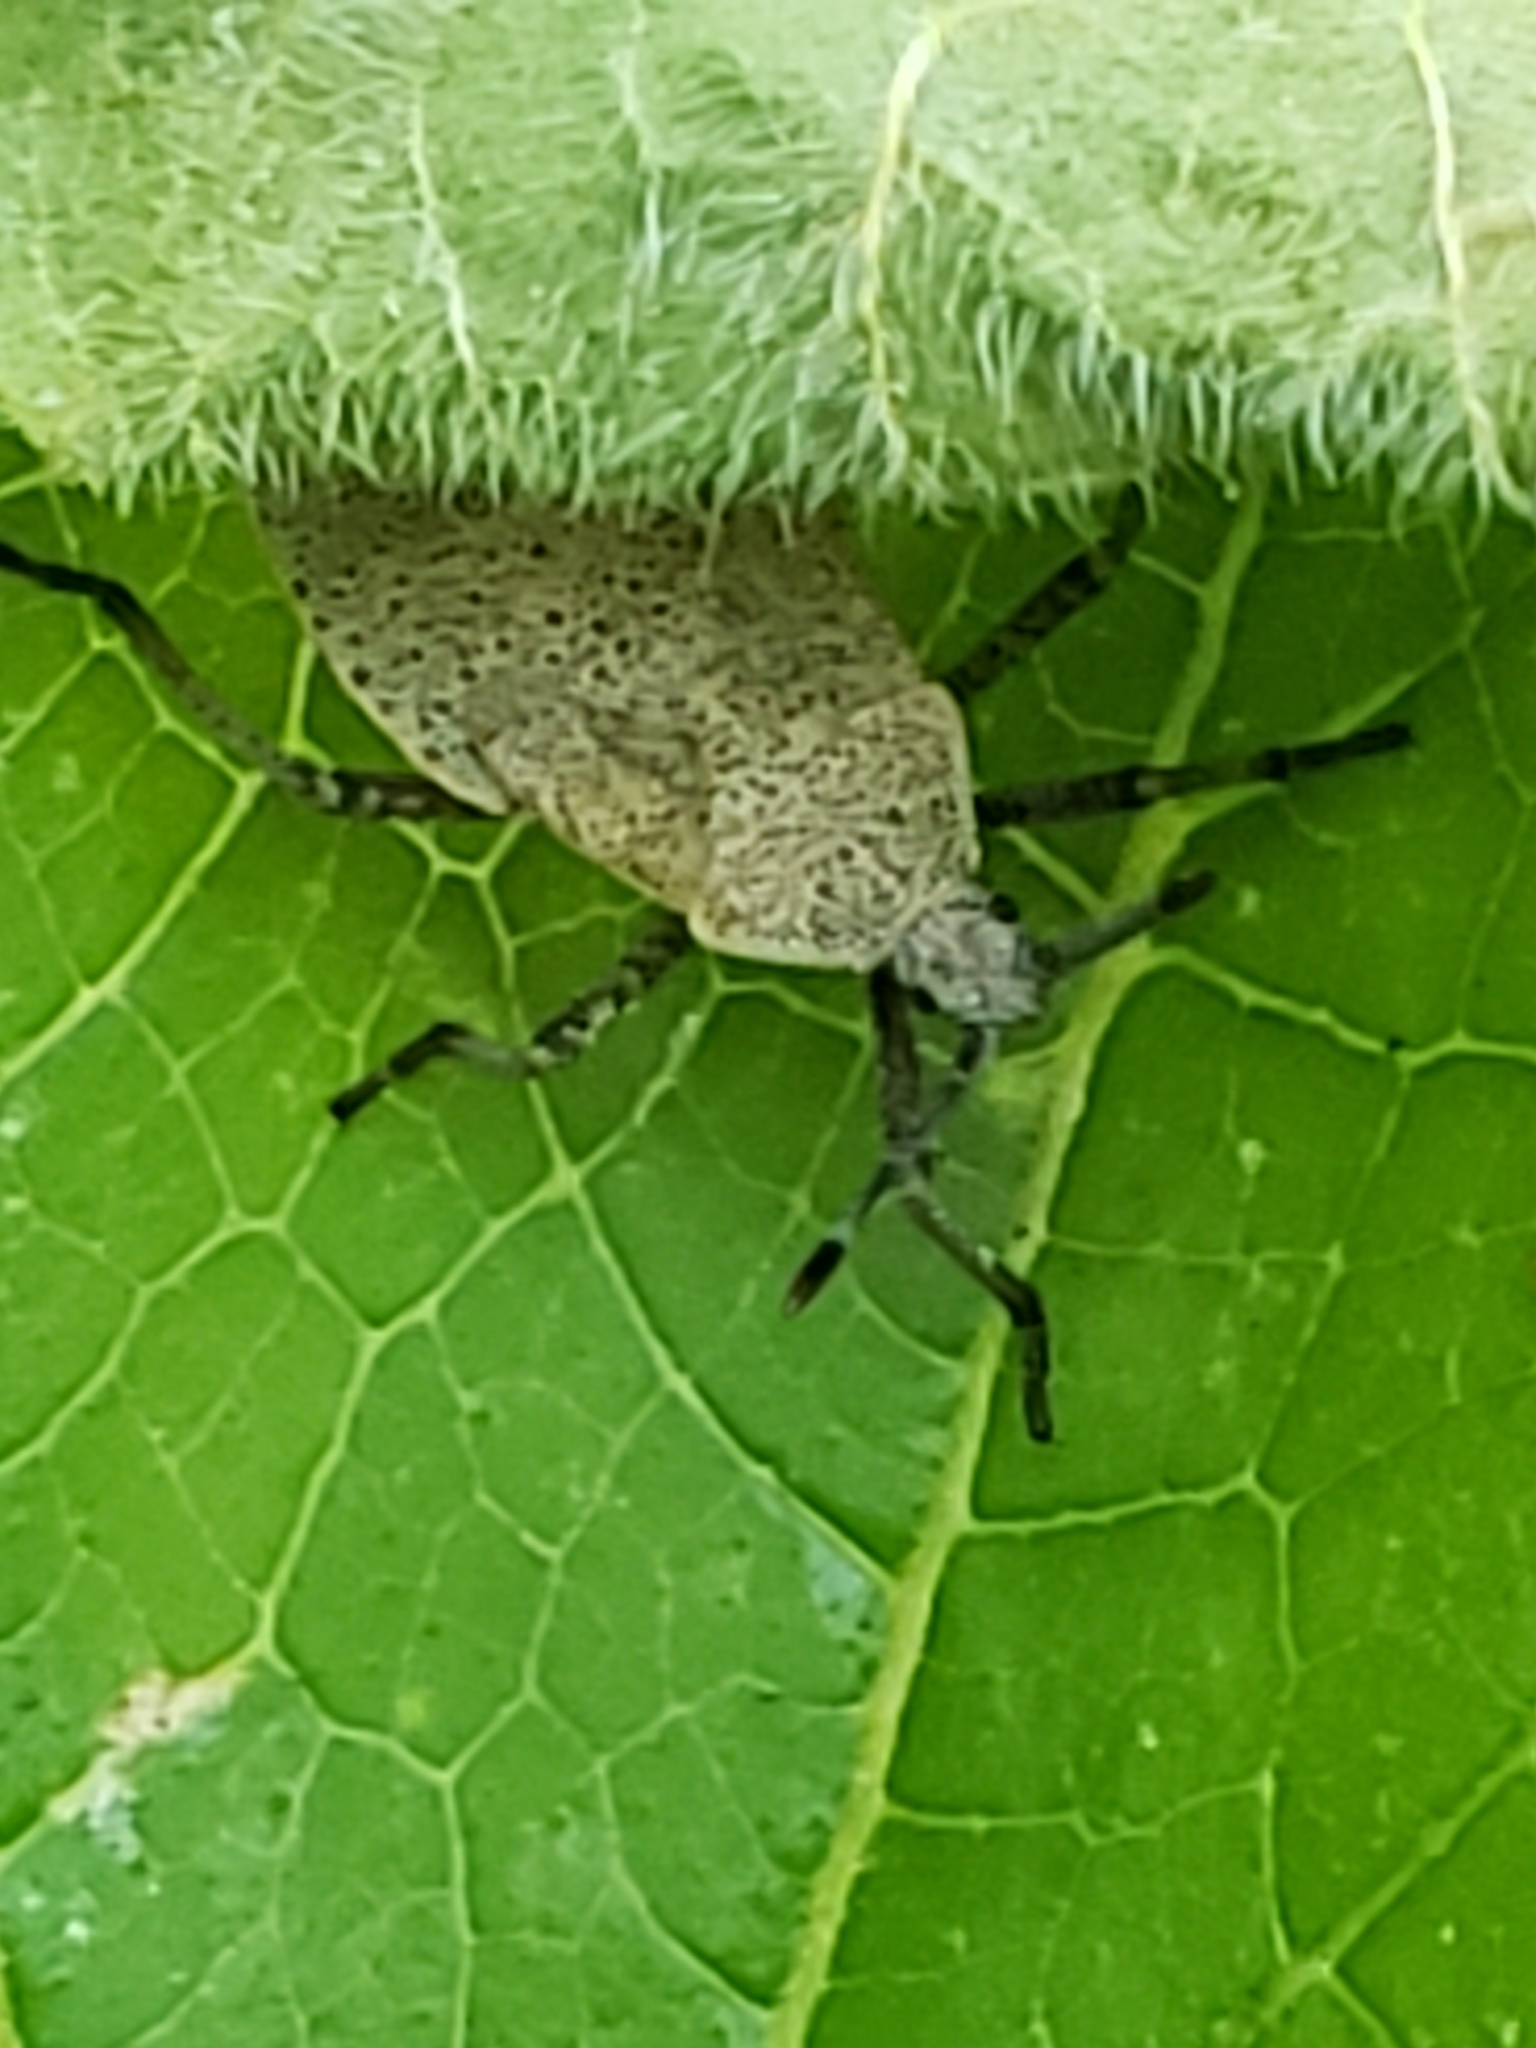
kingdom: Animalia
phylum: Arthropoda
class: Insecta
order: Hemiptera
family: Coreidae
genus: Anasa
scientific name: Anasa tristis
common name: Squash bug
